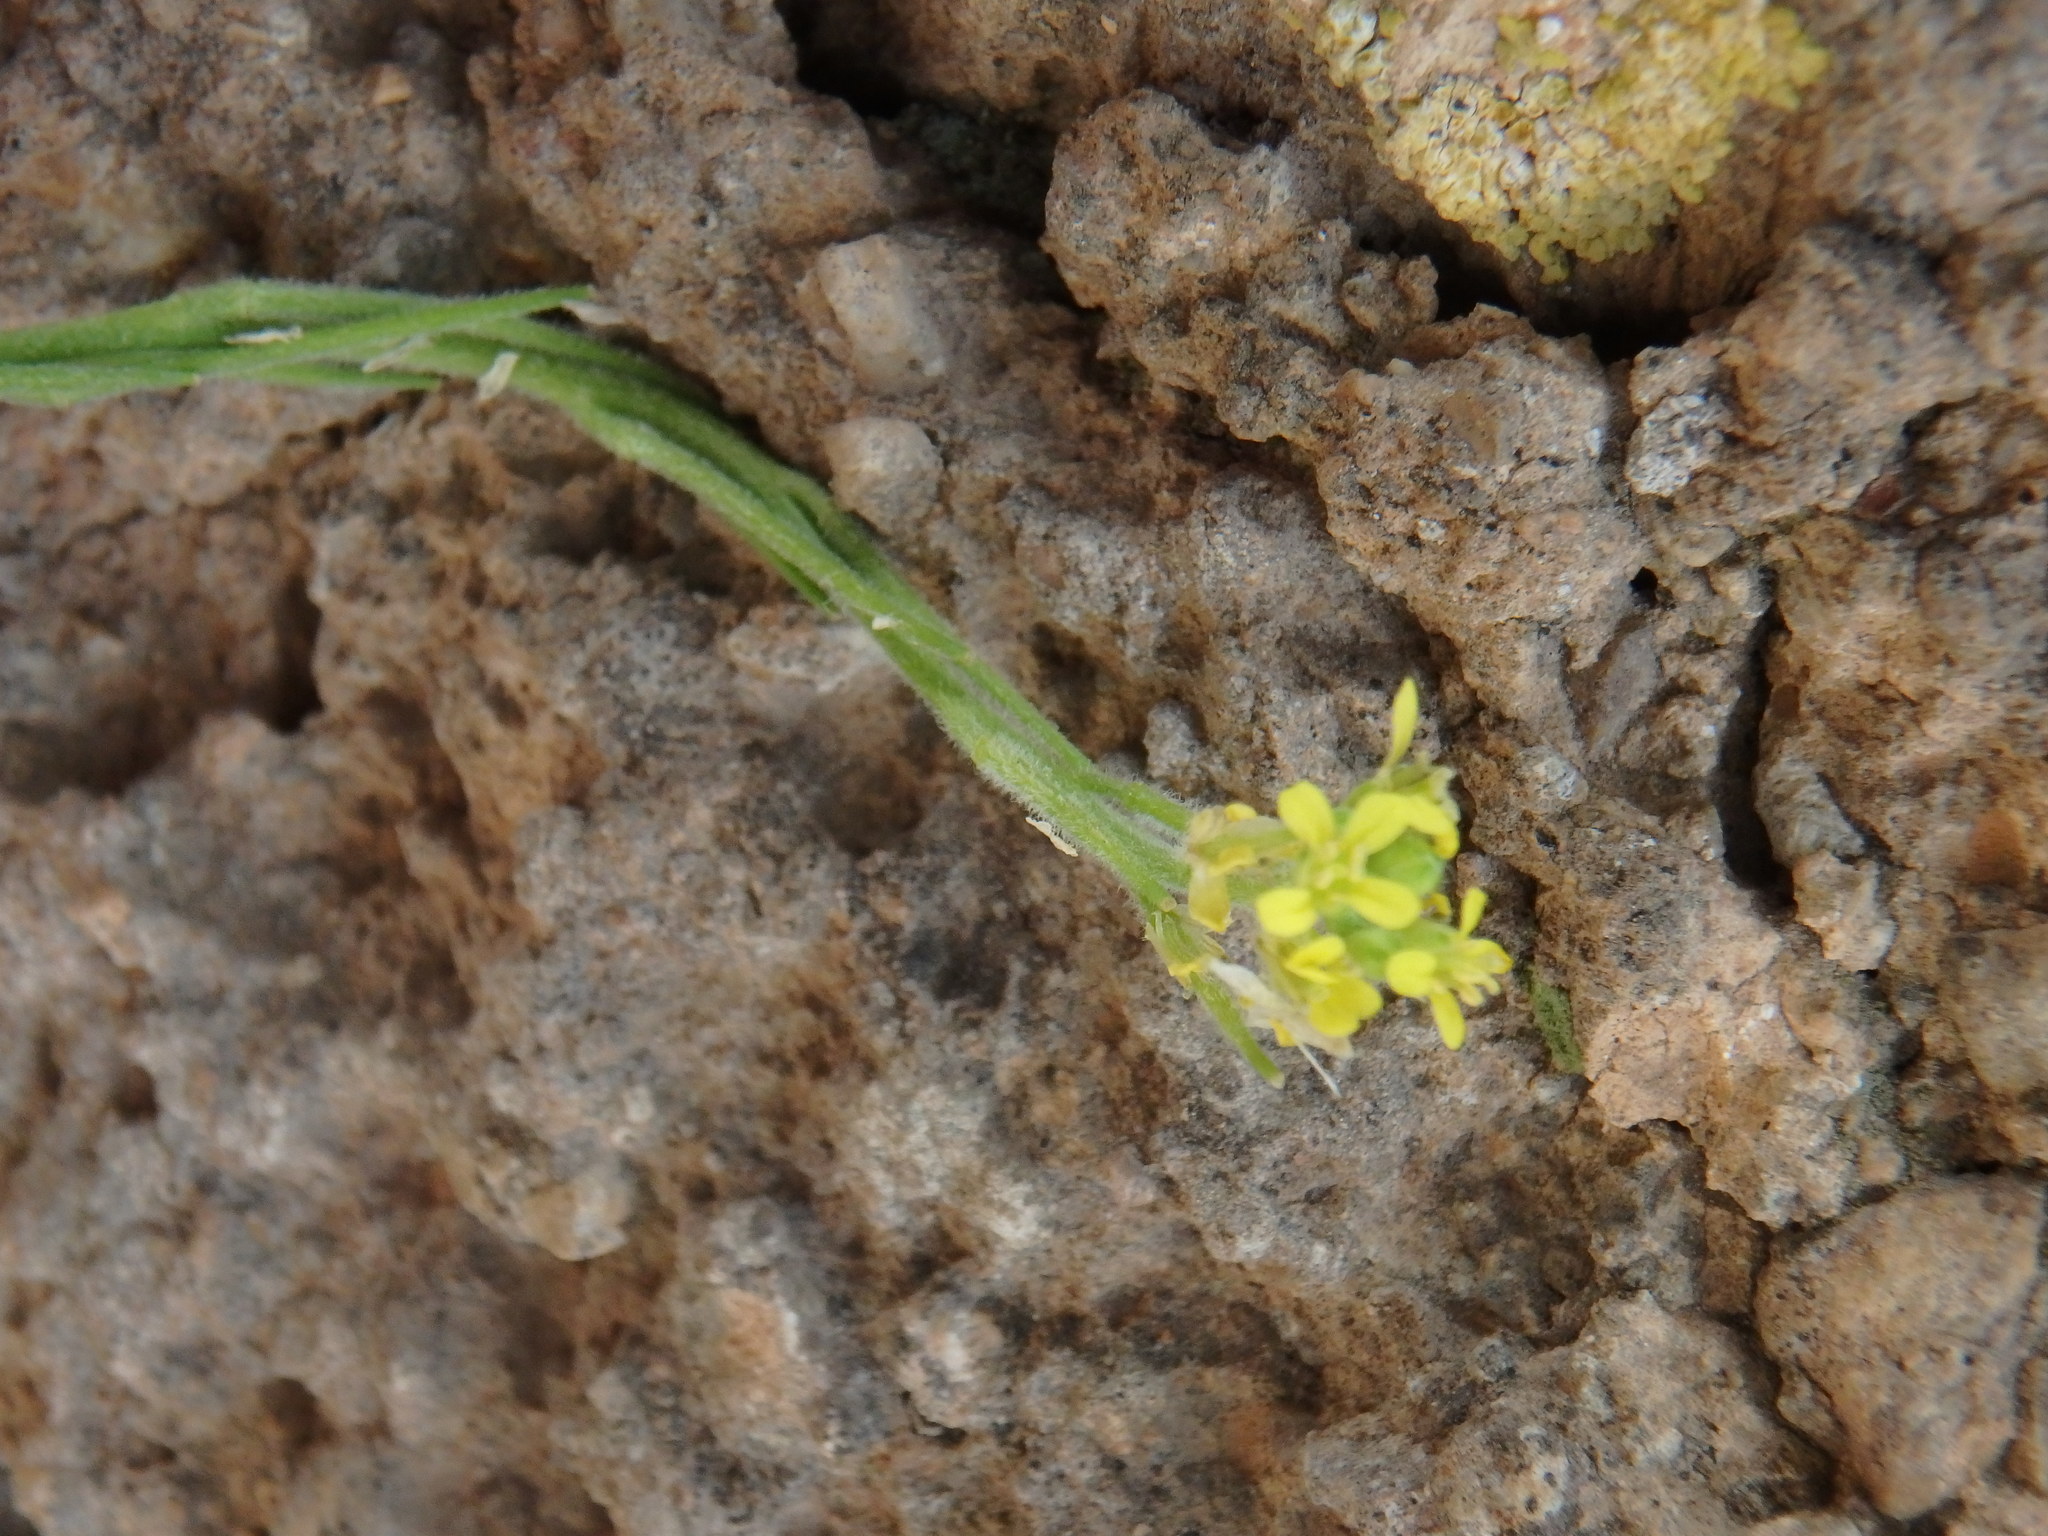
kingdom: Plantae
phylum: Tracheophyta
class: Magnoliopsida
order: Brassicales
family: Brassicaceae
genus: Sisymbrium
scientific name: Sisymbrium officinale
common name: Hedge mustard
